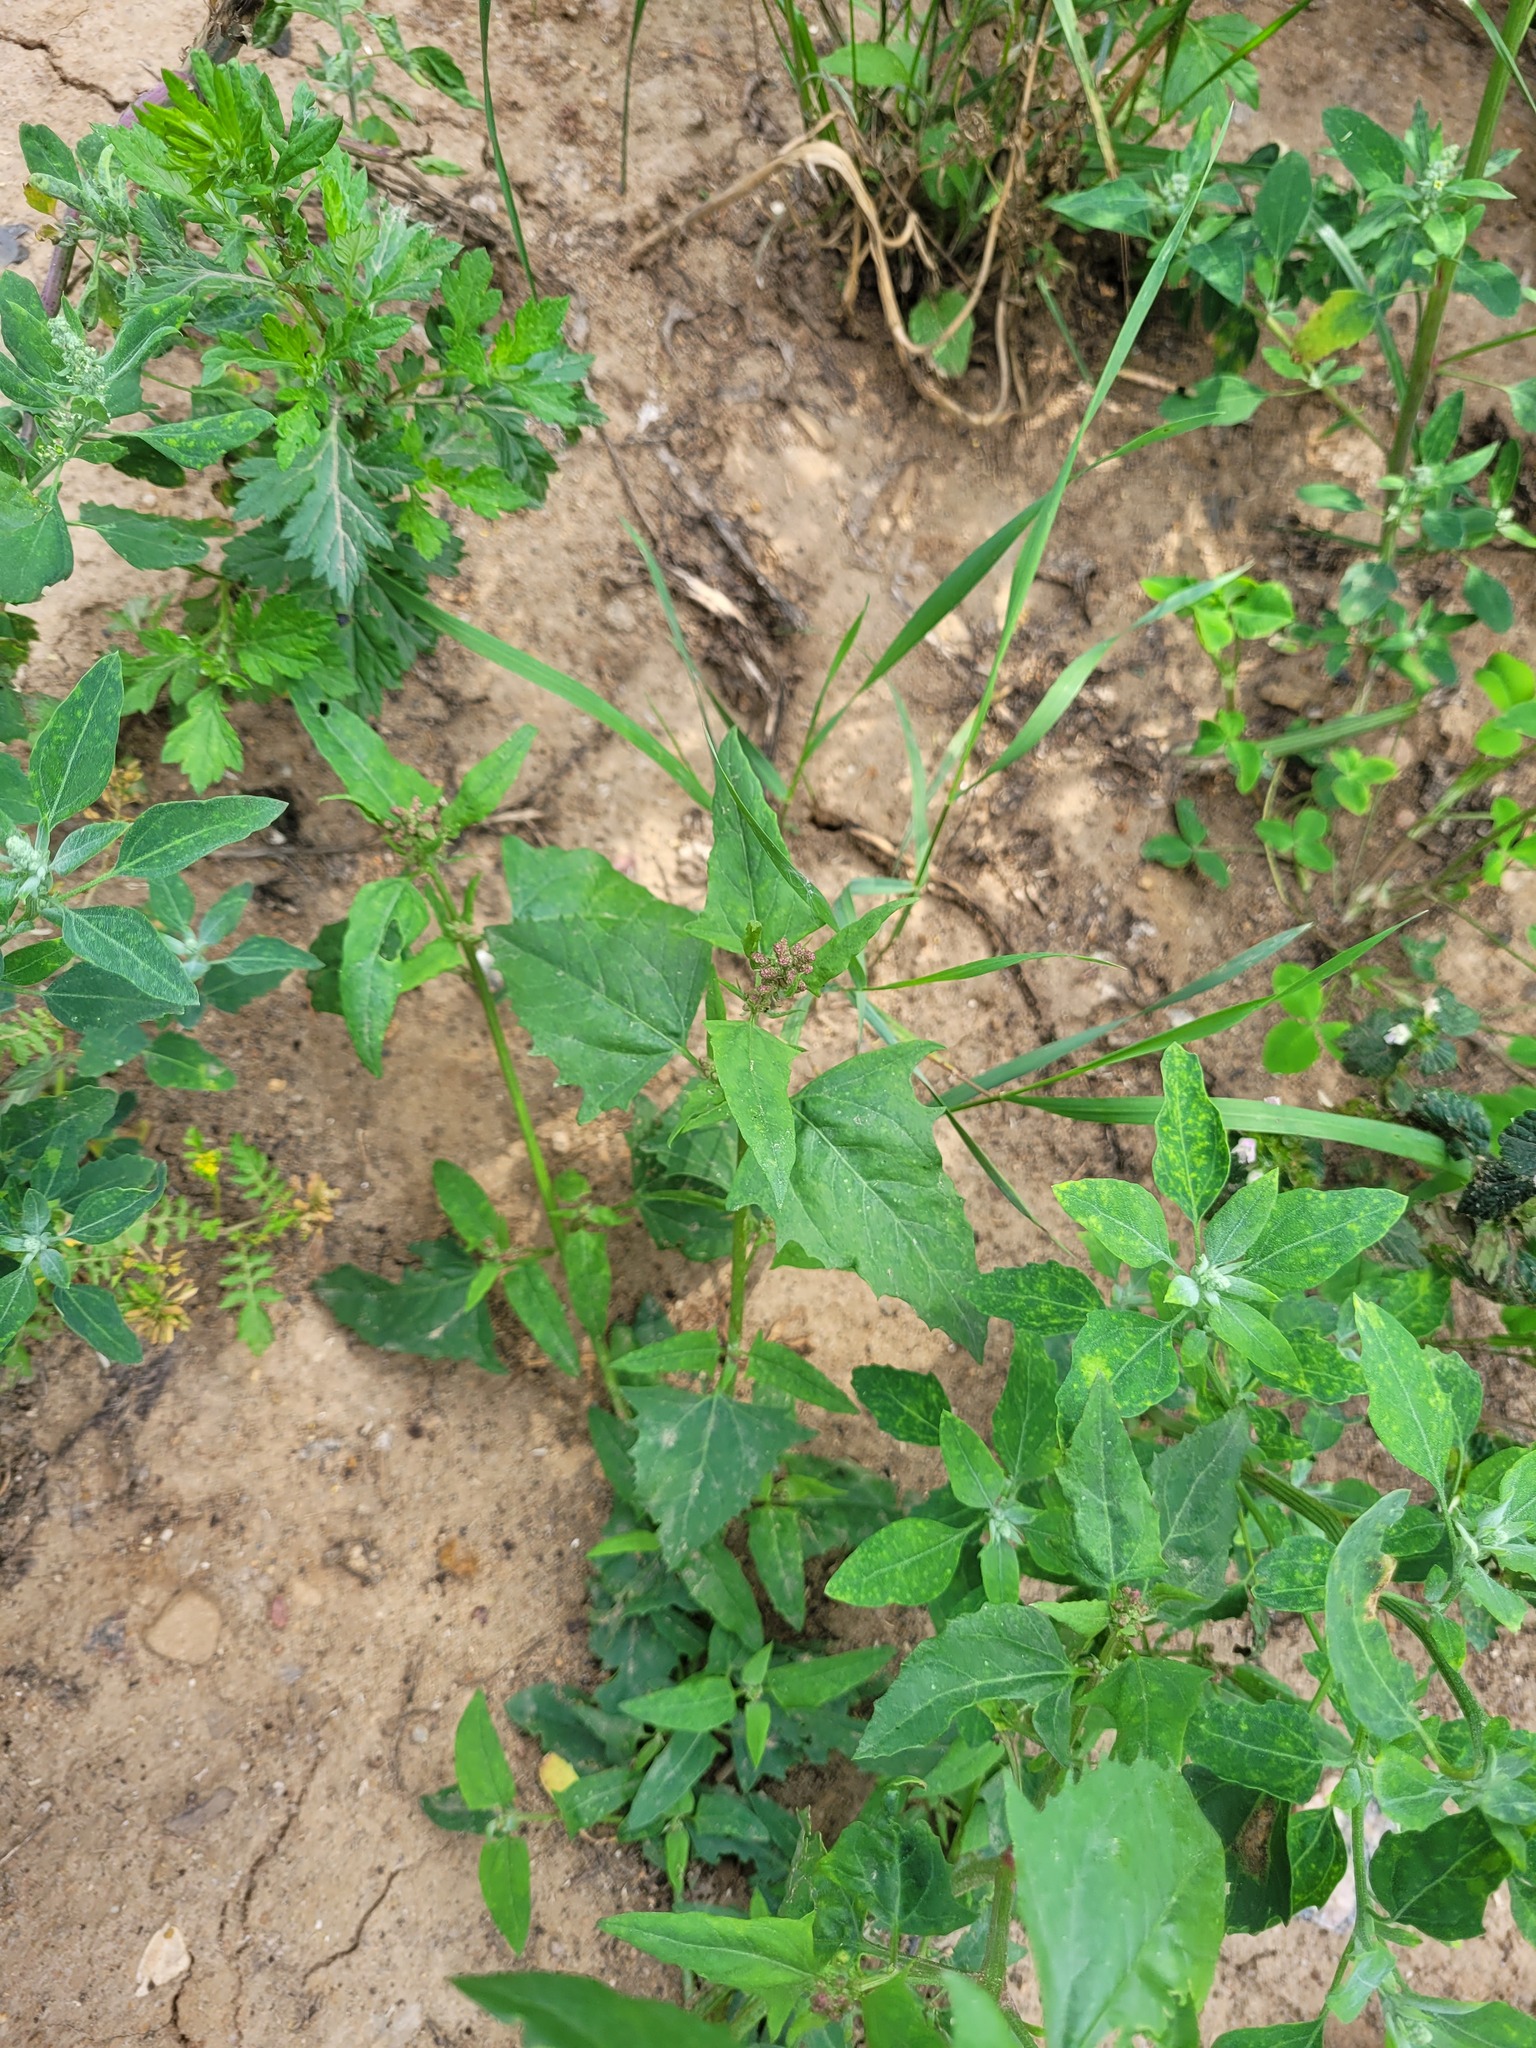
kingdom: Plantae
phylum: Tracheophyta
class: Magnoliopsida
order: Caryophyllales
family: Amaranthaceae
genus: Atriplex
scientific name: Atriplex prostrata
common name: Spear-leaved orache
